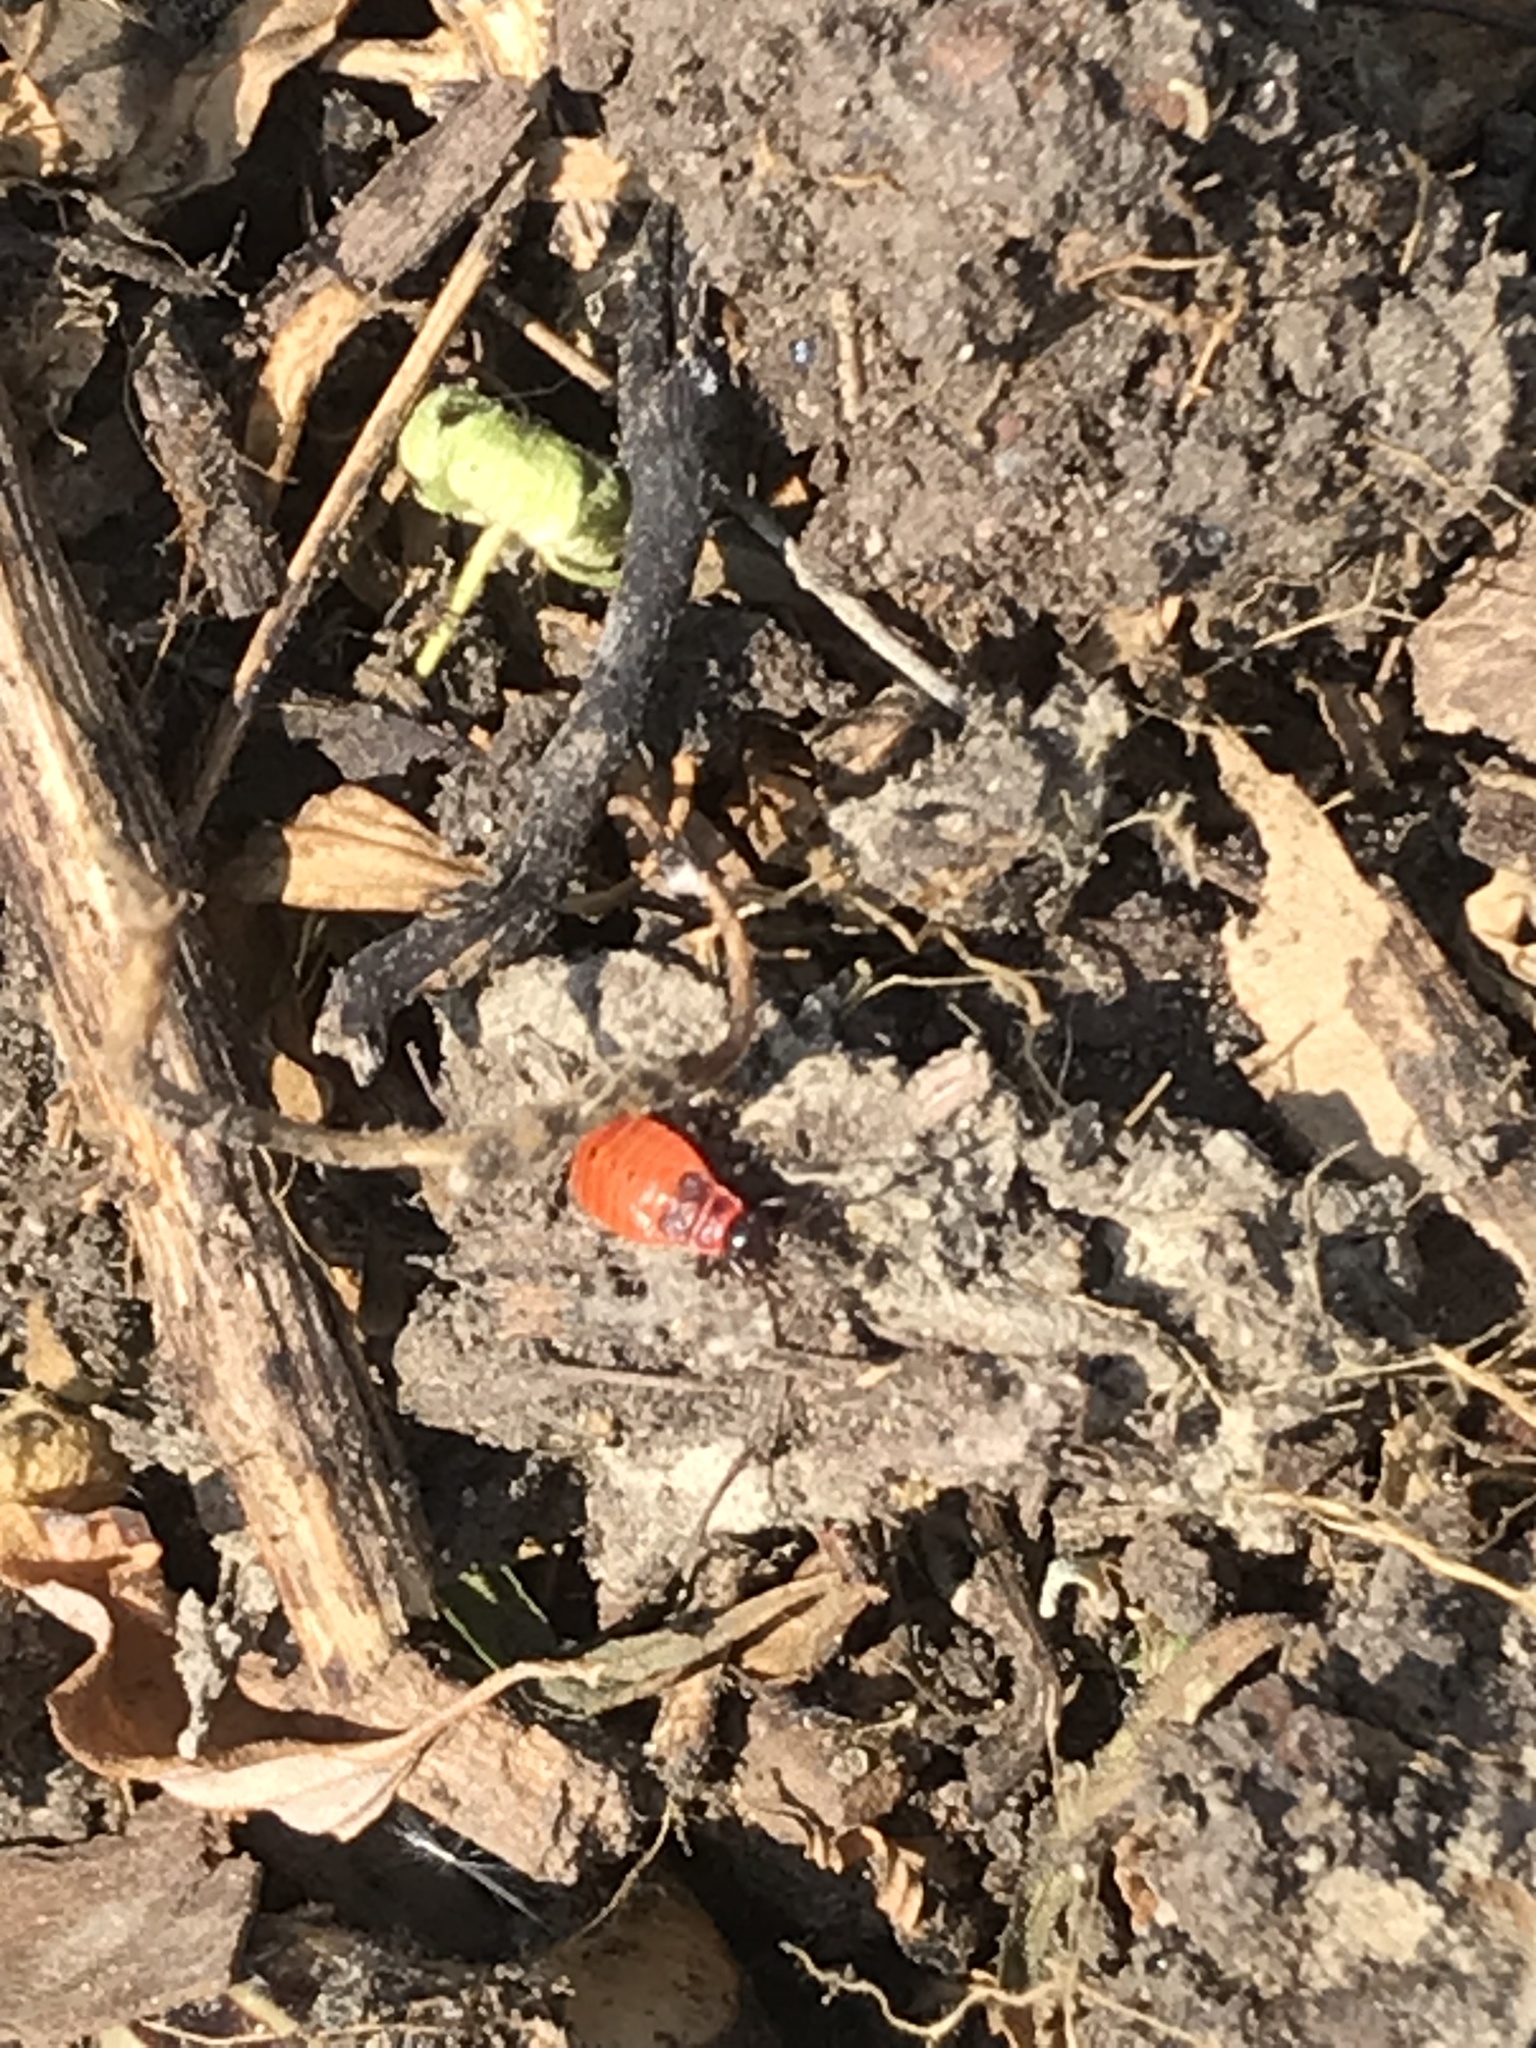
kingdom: Animalia
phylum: Arthropoda
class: Insecta
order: Hemiptera
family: Pyrrhocoridae
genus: Pyrrhocoris
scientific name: Pyrrhocoris apterus
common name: Firebug
